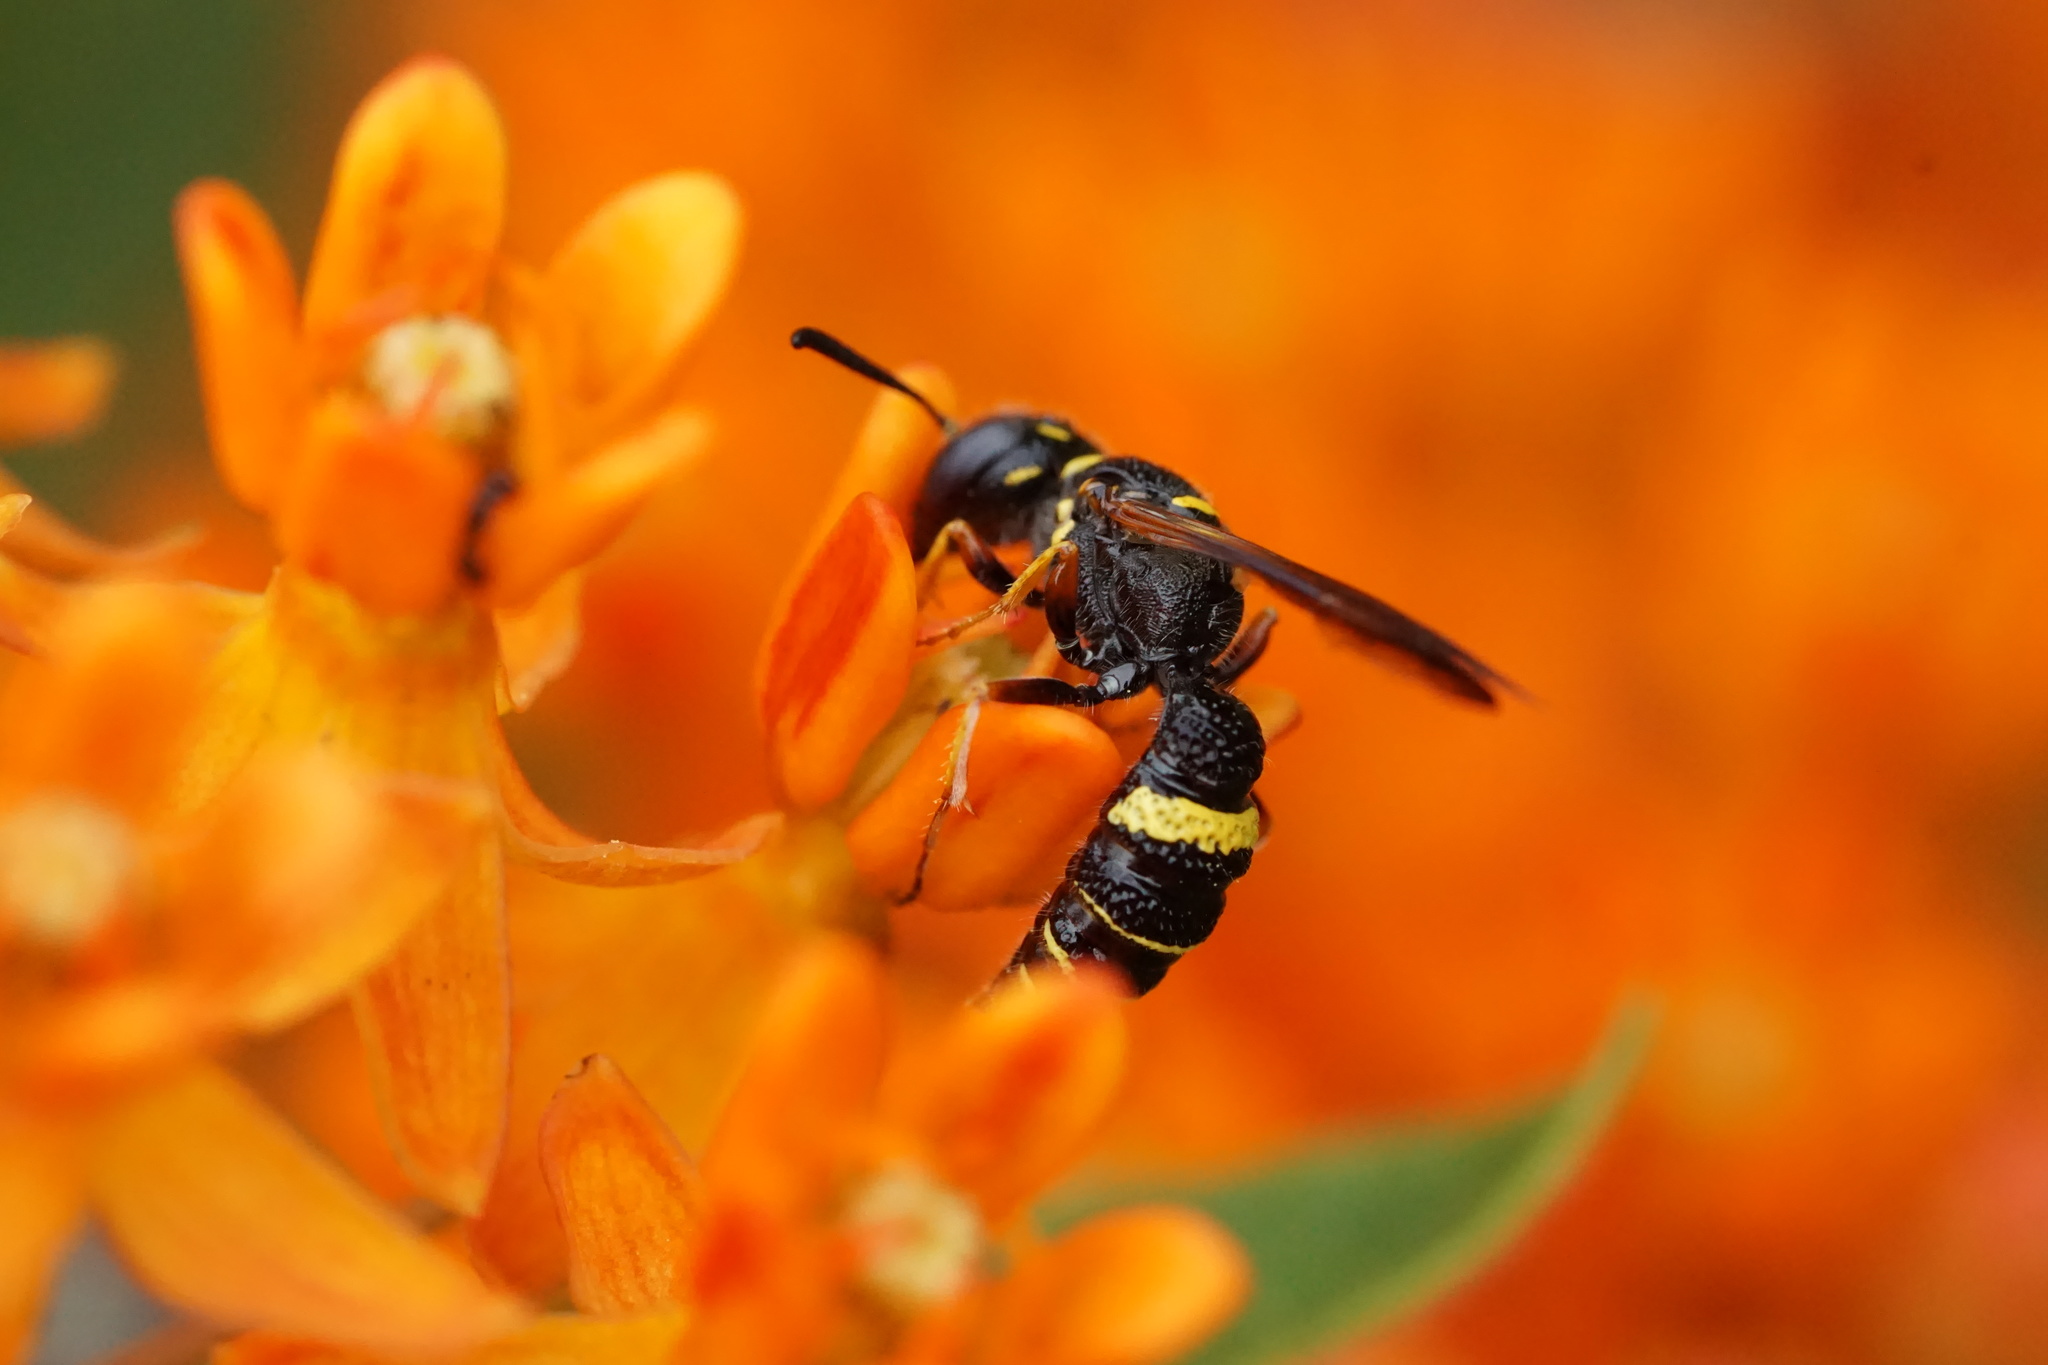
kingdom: Animalia
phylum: Arthropoda
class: Insecta
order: Hymenoptera
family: Crabronidae
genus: Philanthus
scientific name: Philanthus gibbosus
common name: Humped beewolf
